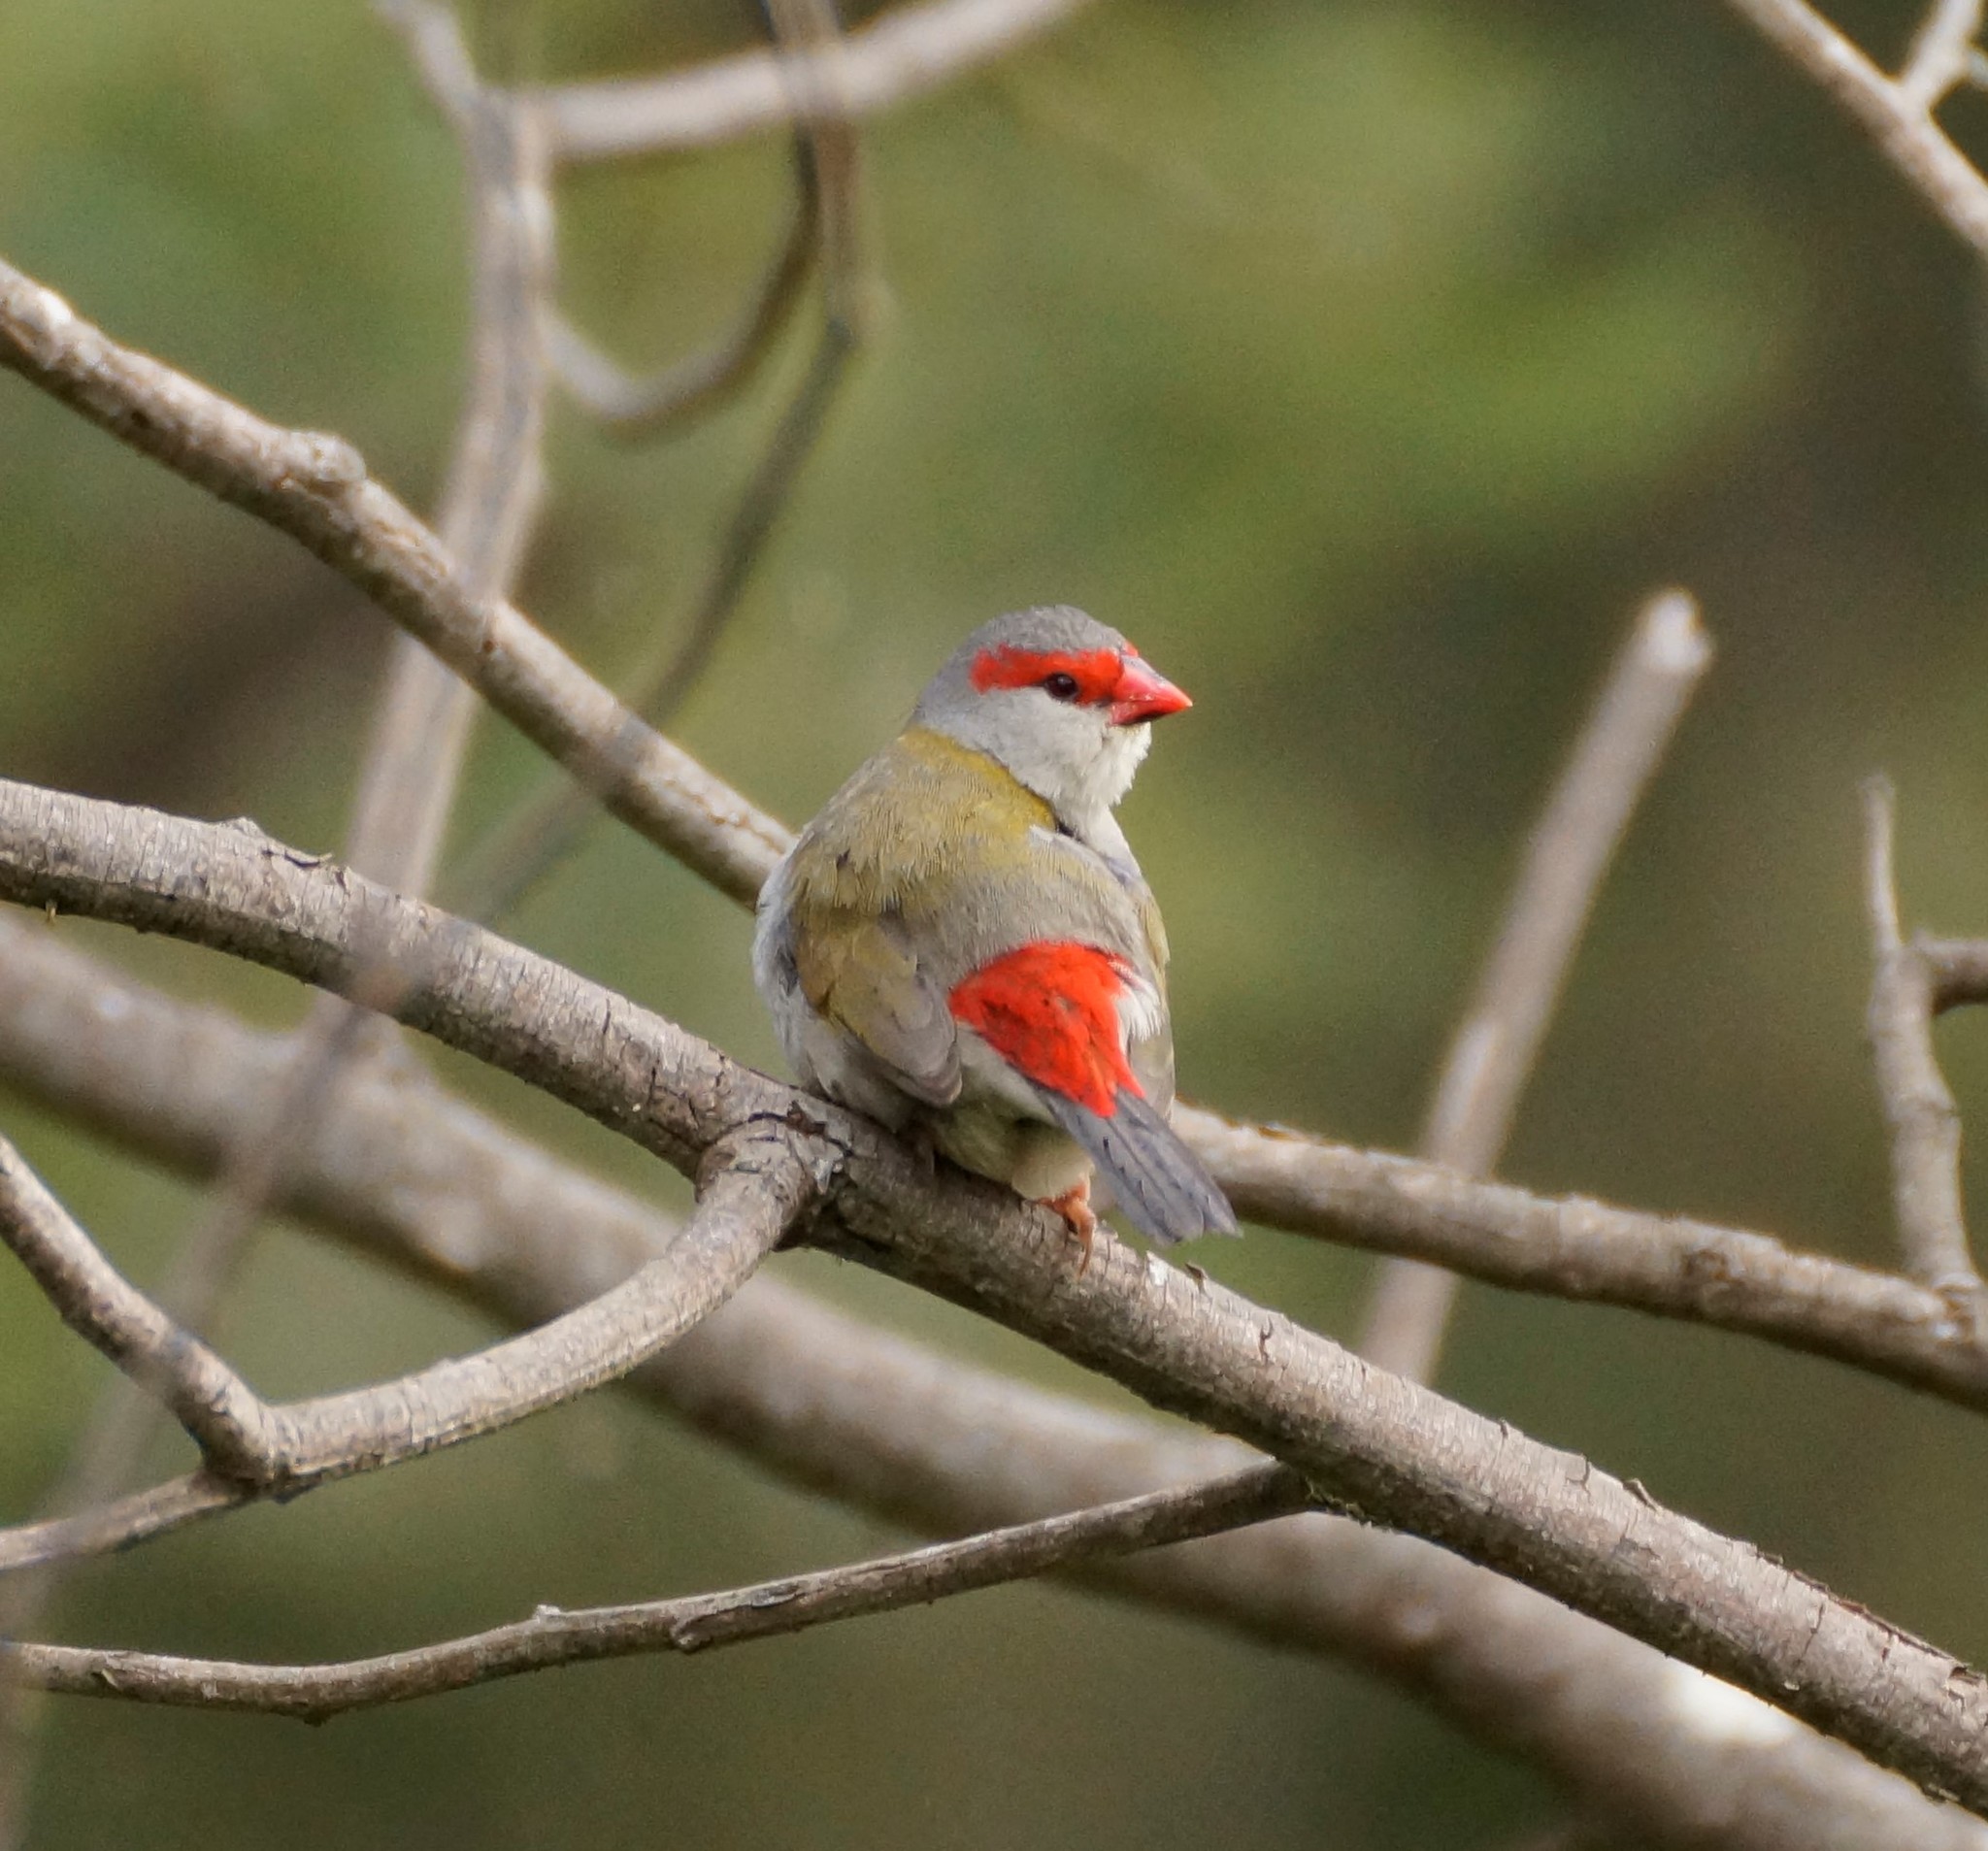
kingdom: Animalia
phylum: Chordata
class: Aves
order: Passeriformes
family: Estrildidae
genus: Neochmia
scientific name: Neochmia temporalis
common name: Red-browed finch
